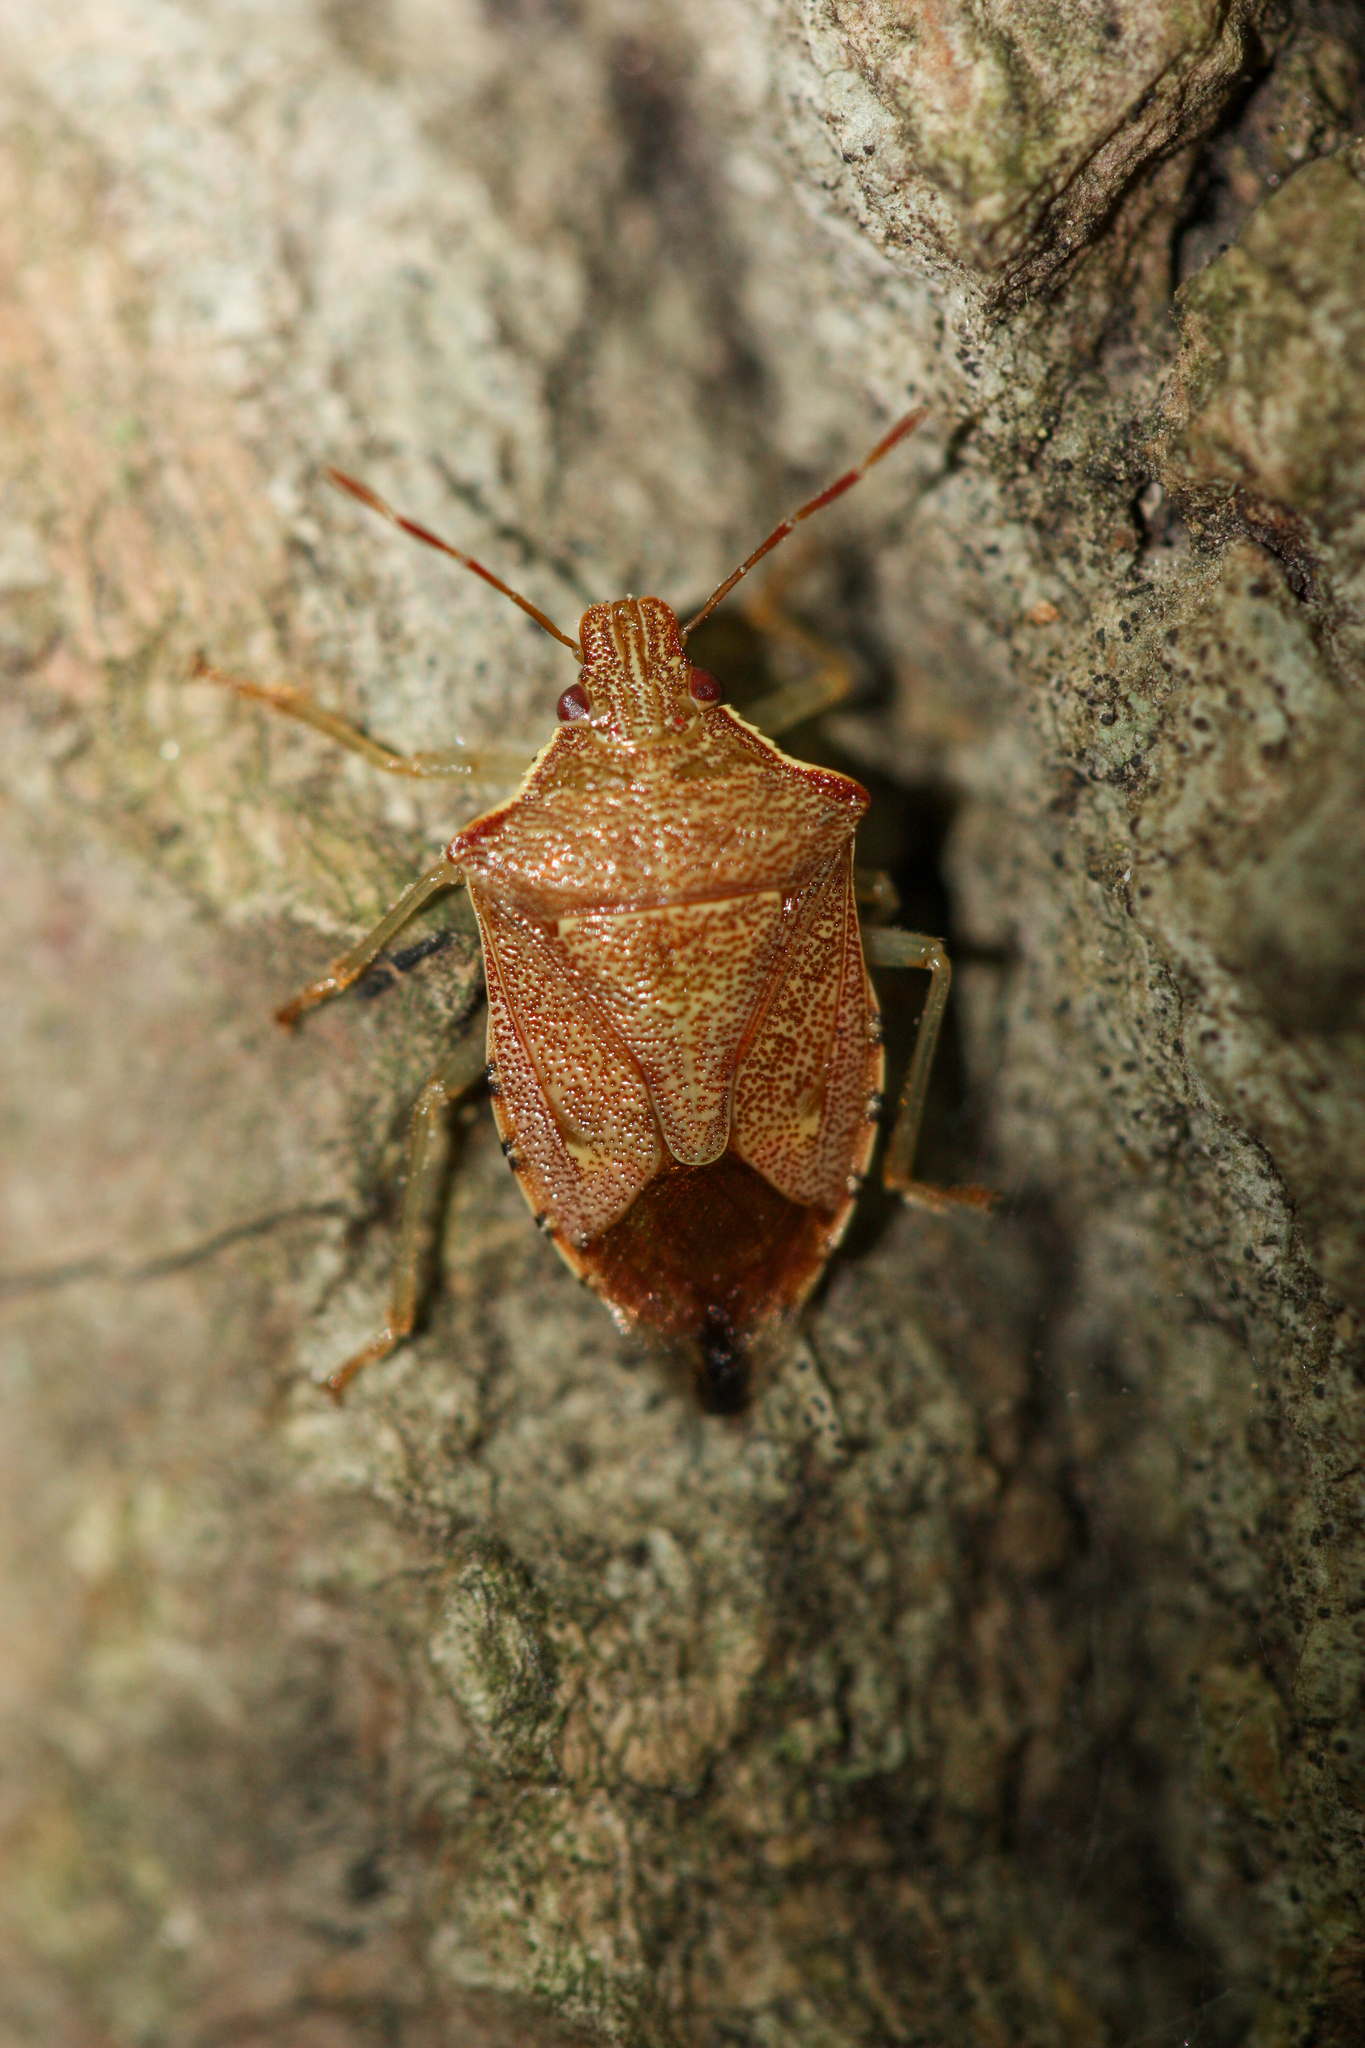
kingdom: Animalia
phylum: Arthropoda
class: Insecta
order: Hemiptera
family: Pentatomidae
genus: Podisus
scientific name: Podisus brevispinus
